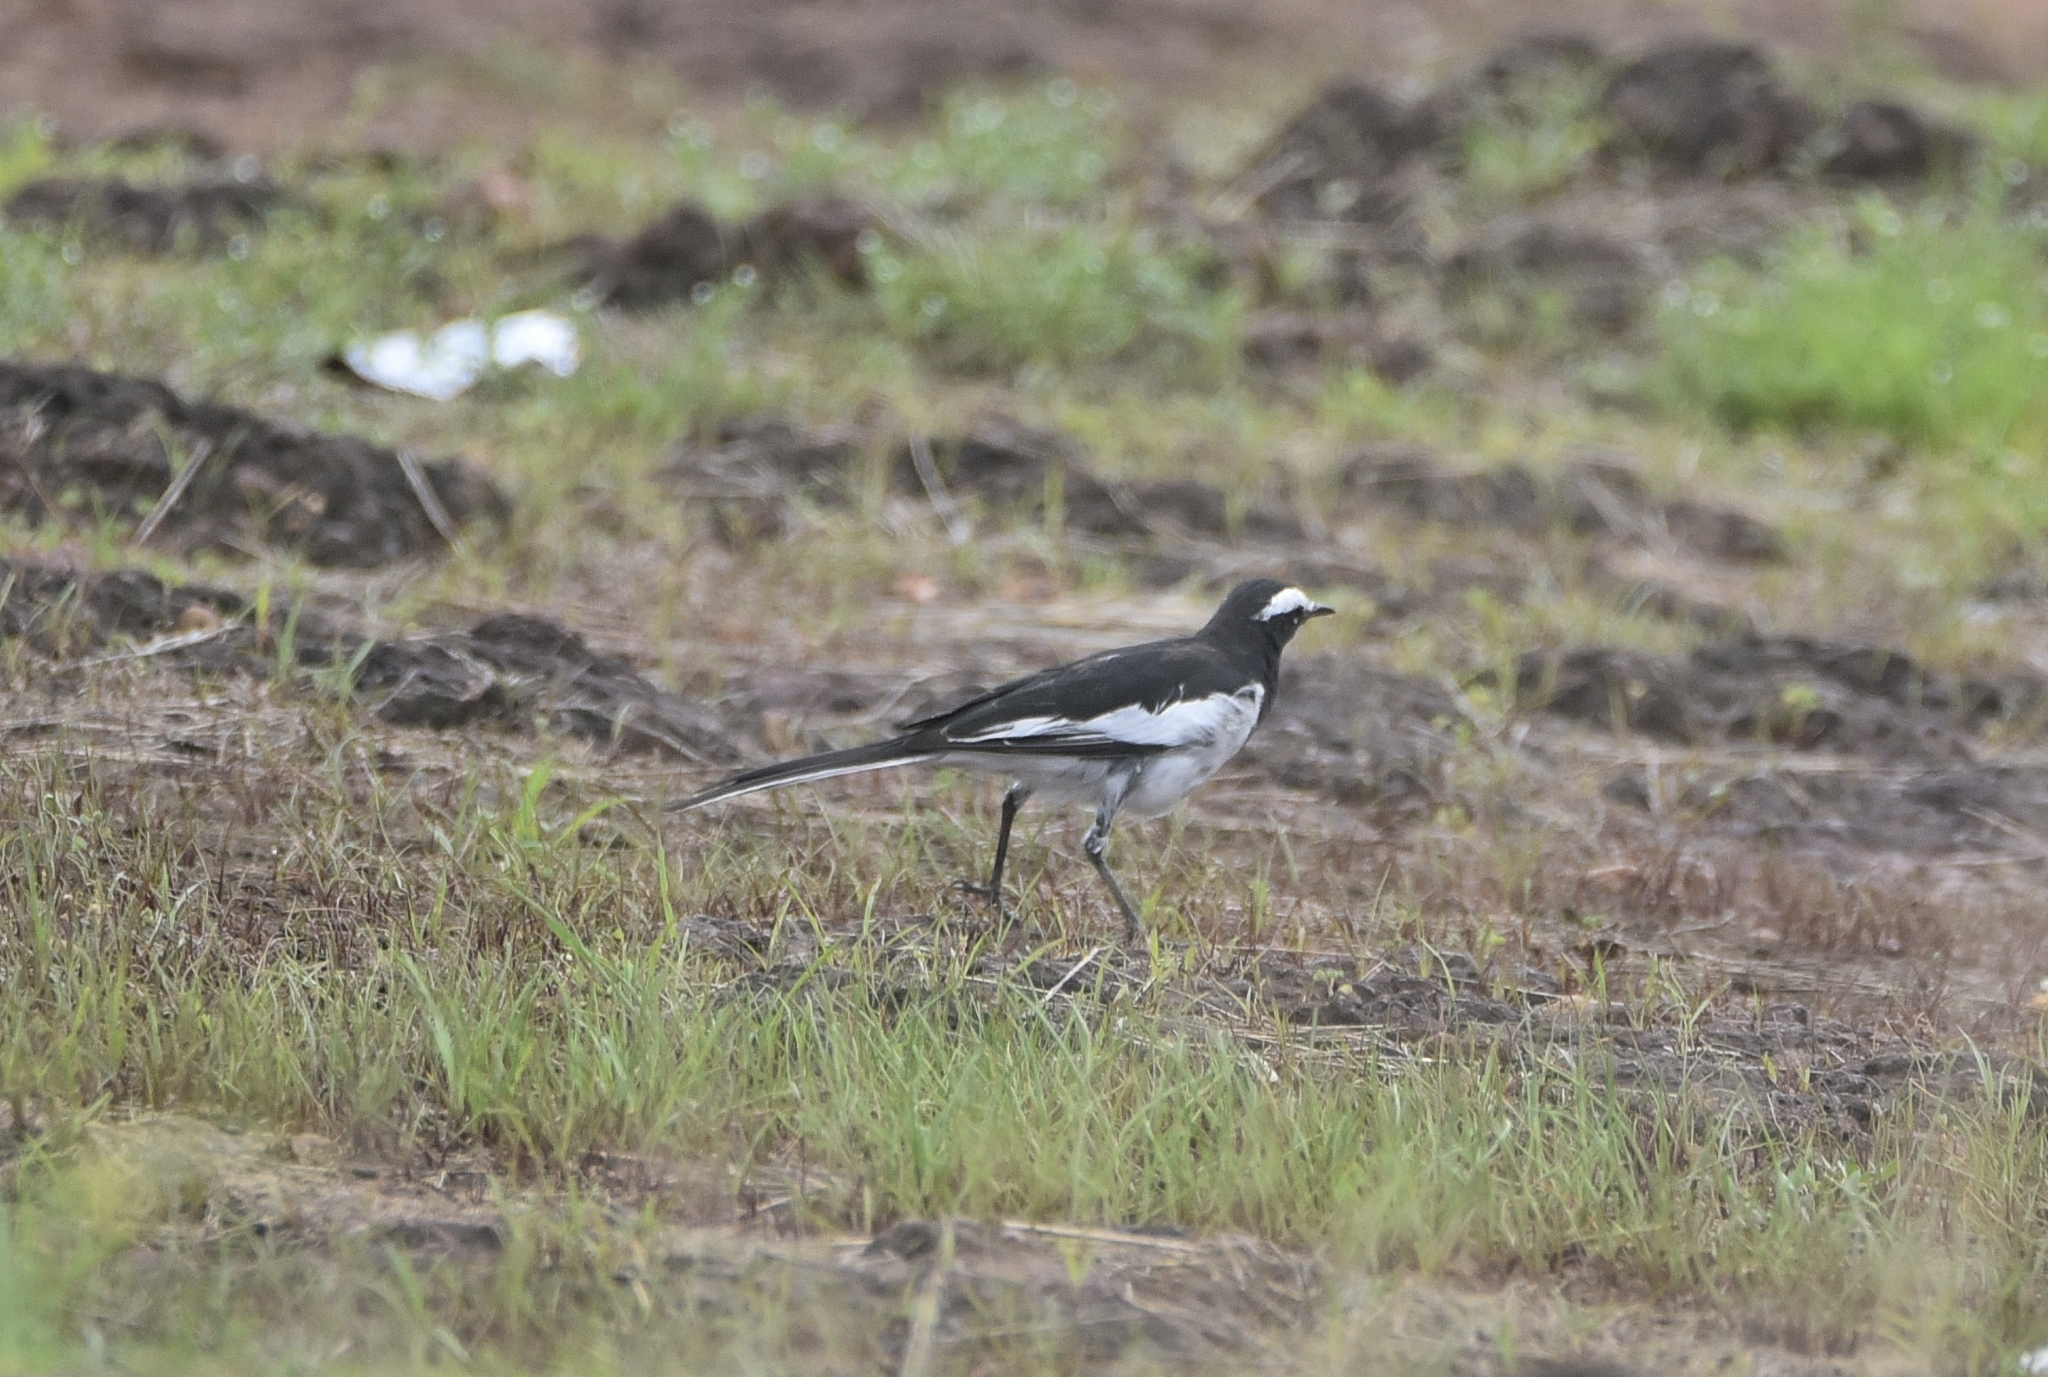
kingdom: Animalia
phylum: Chordata
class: Aves
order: Passeriformes
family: Motacillidae
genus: Motacilla
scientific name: Motacilla maderaspatensis
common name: White-browed wagtail
